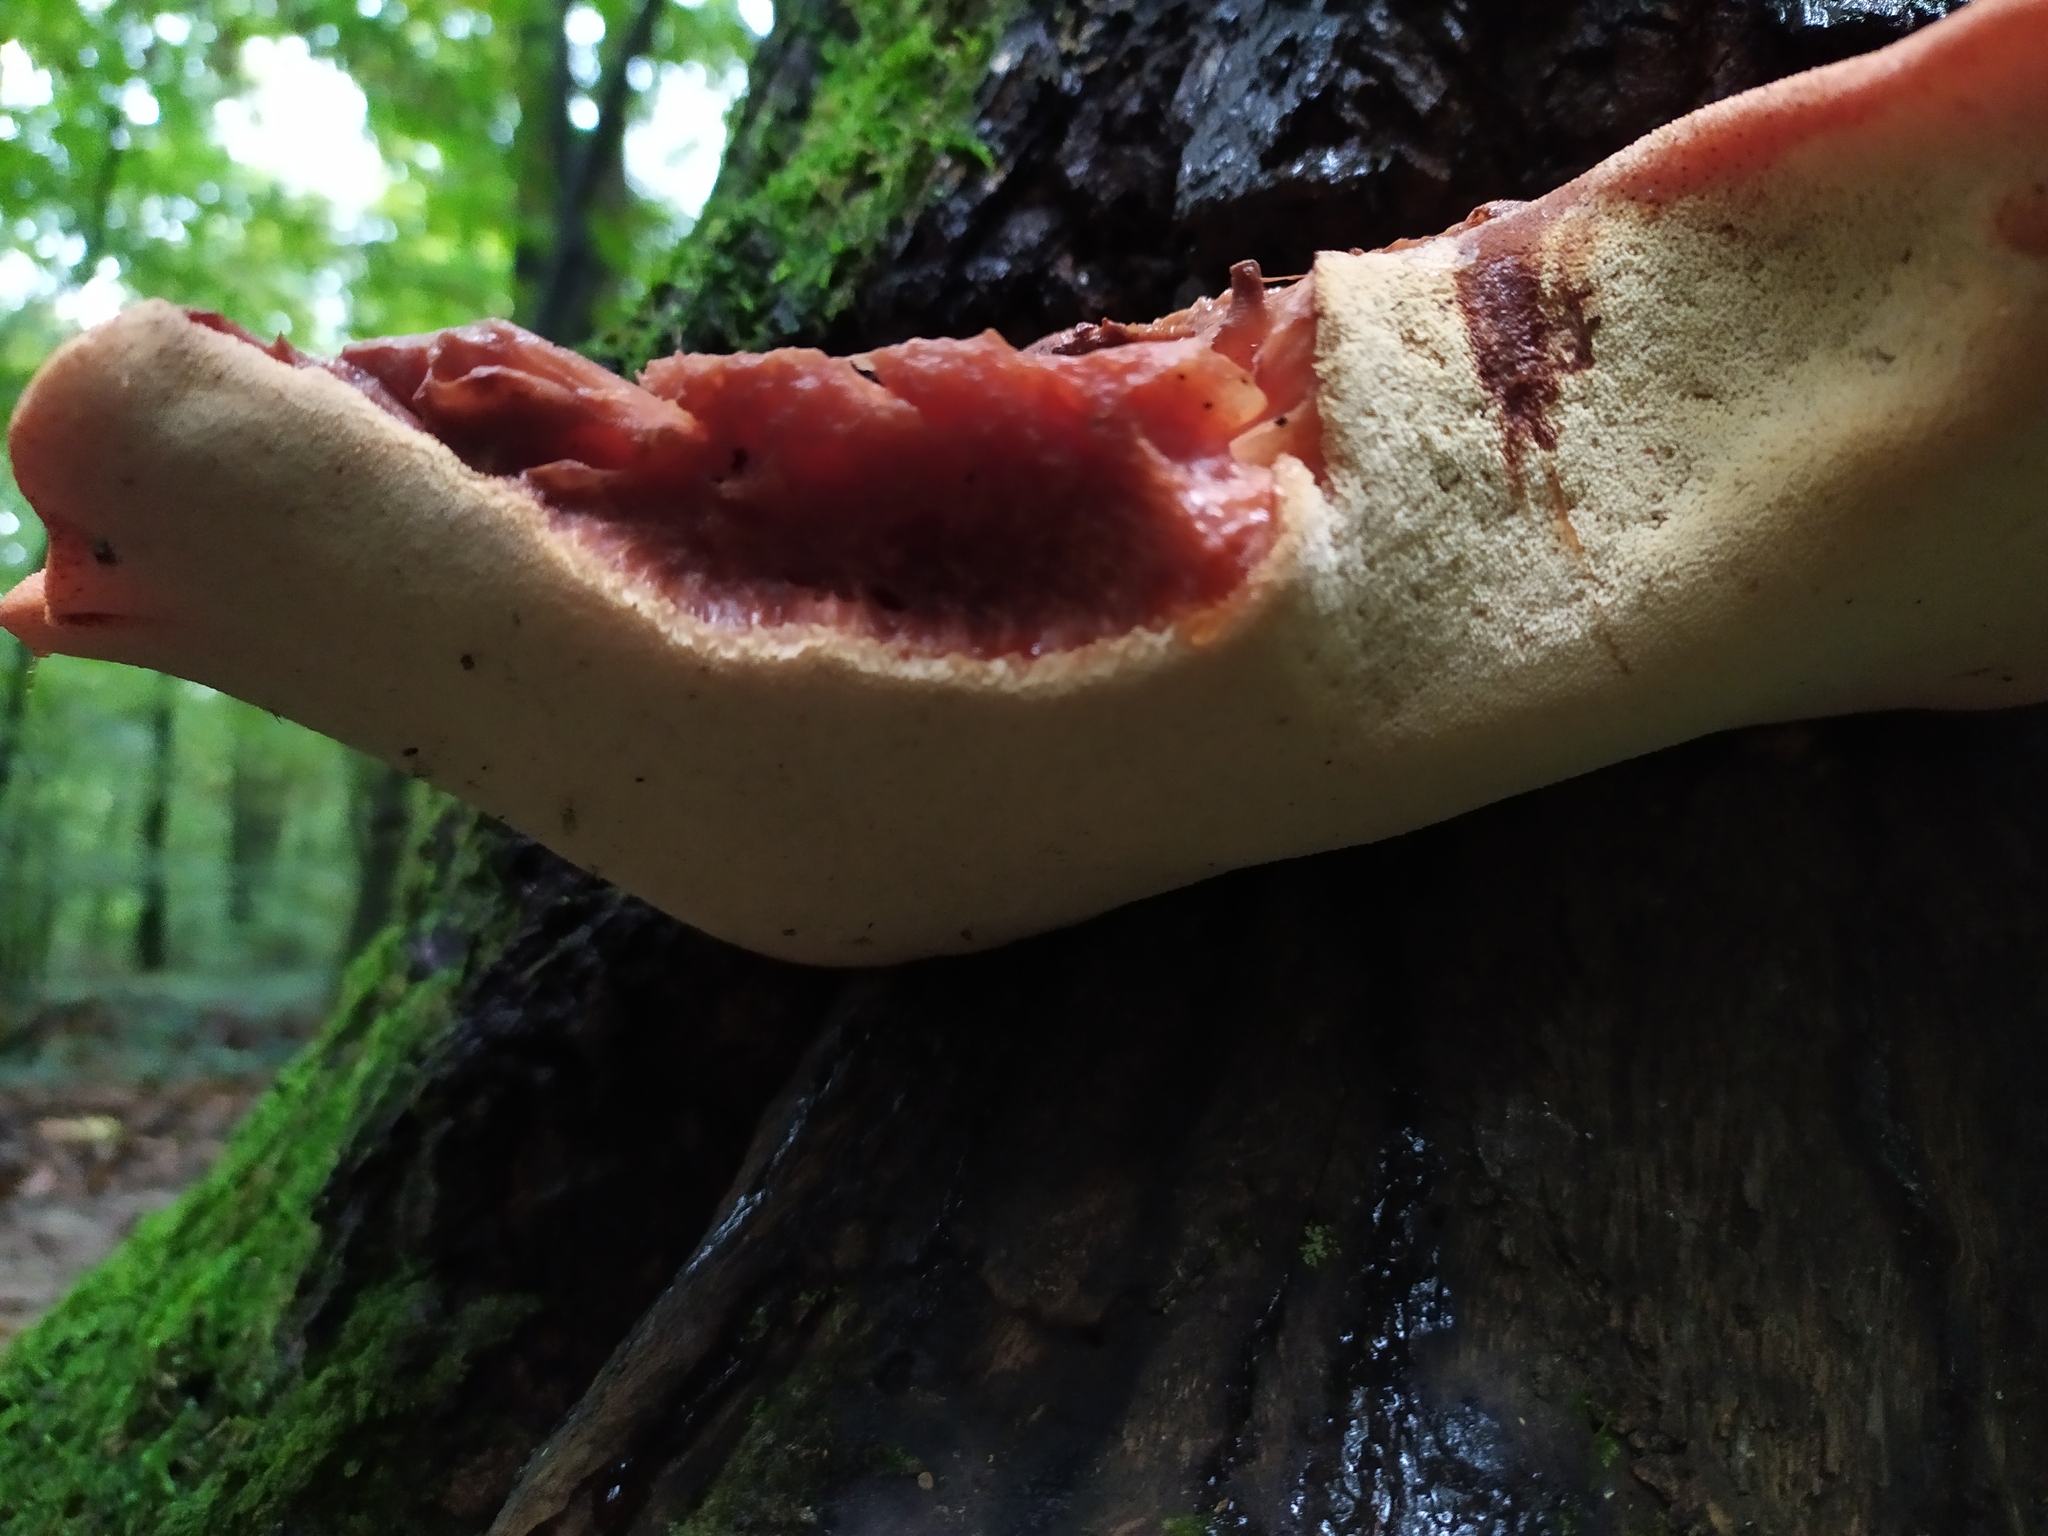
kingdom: Fungi
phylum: Basidiomycota
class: Agaricomycetes
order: Agaricales
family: Fistulinaceae
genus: Fistulina
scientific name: Fistulina hepatica
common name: Beef-steak fungus
